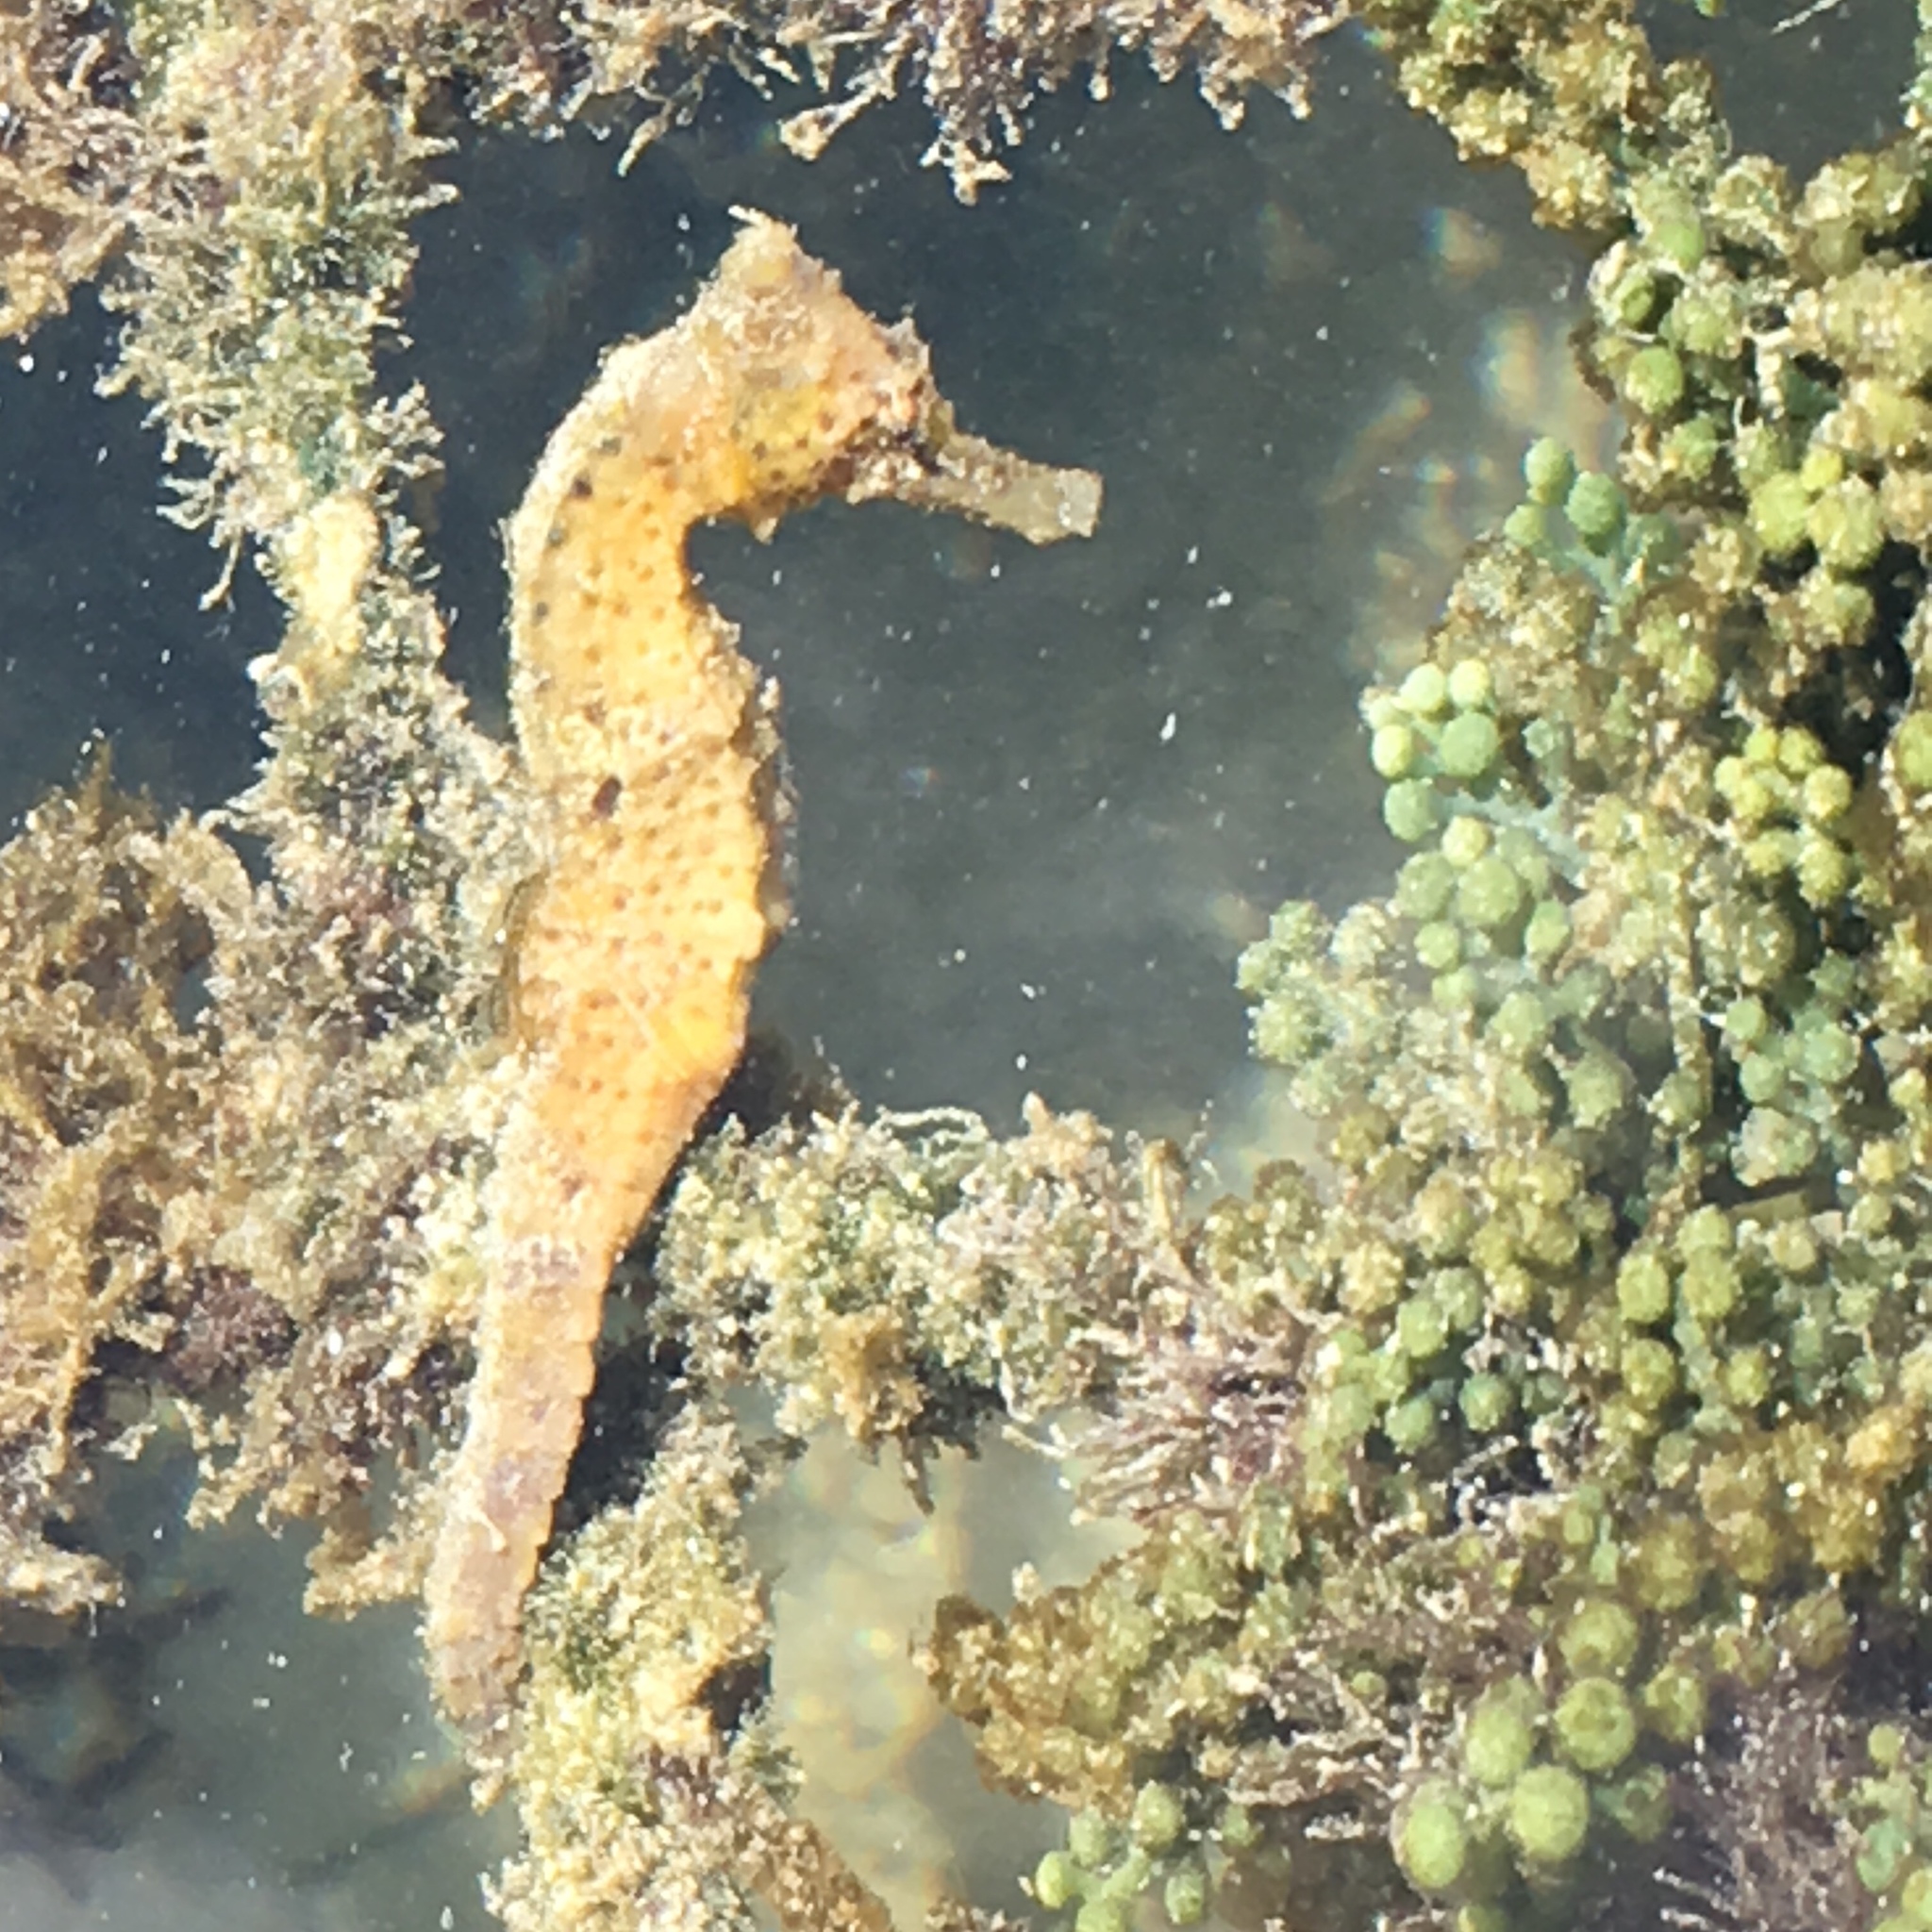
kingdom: Animalia
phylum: Chordata
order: Syngnathiformes
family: Syngnathidae
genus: Hippocampus
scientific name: Hippocampus reidi
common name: Slender seahorse
